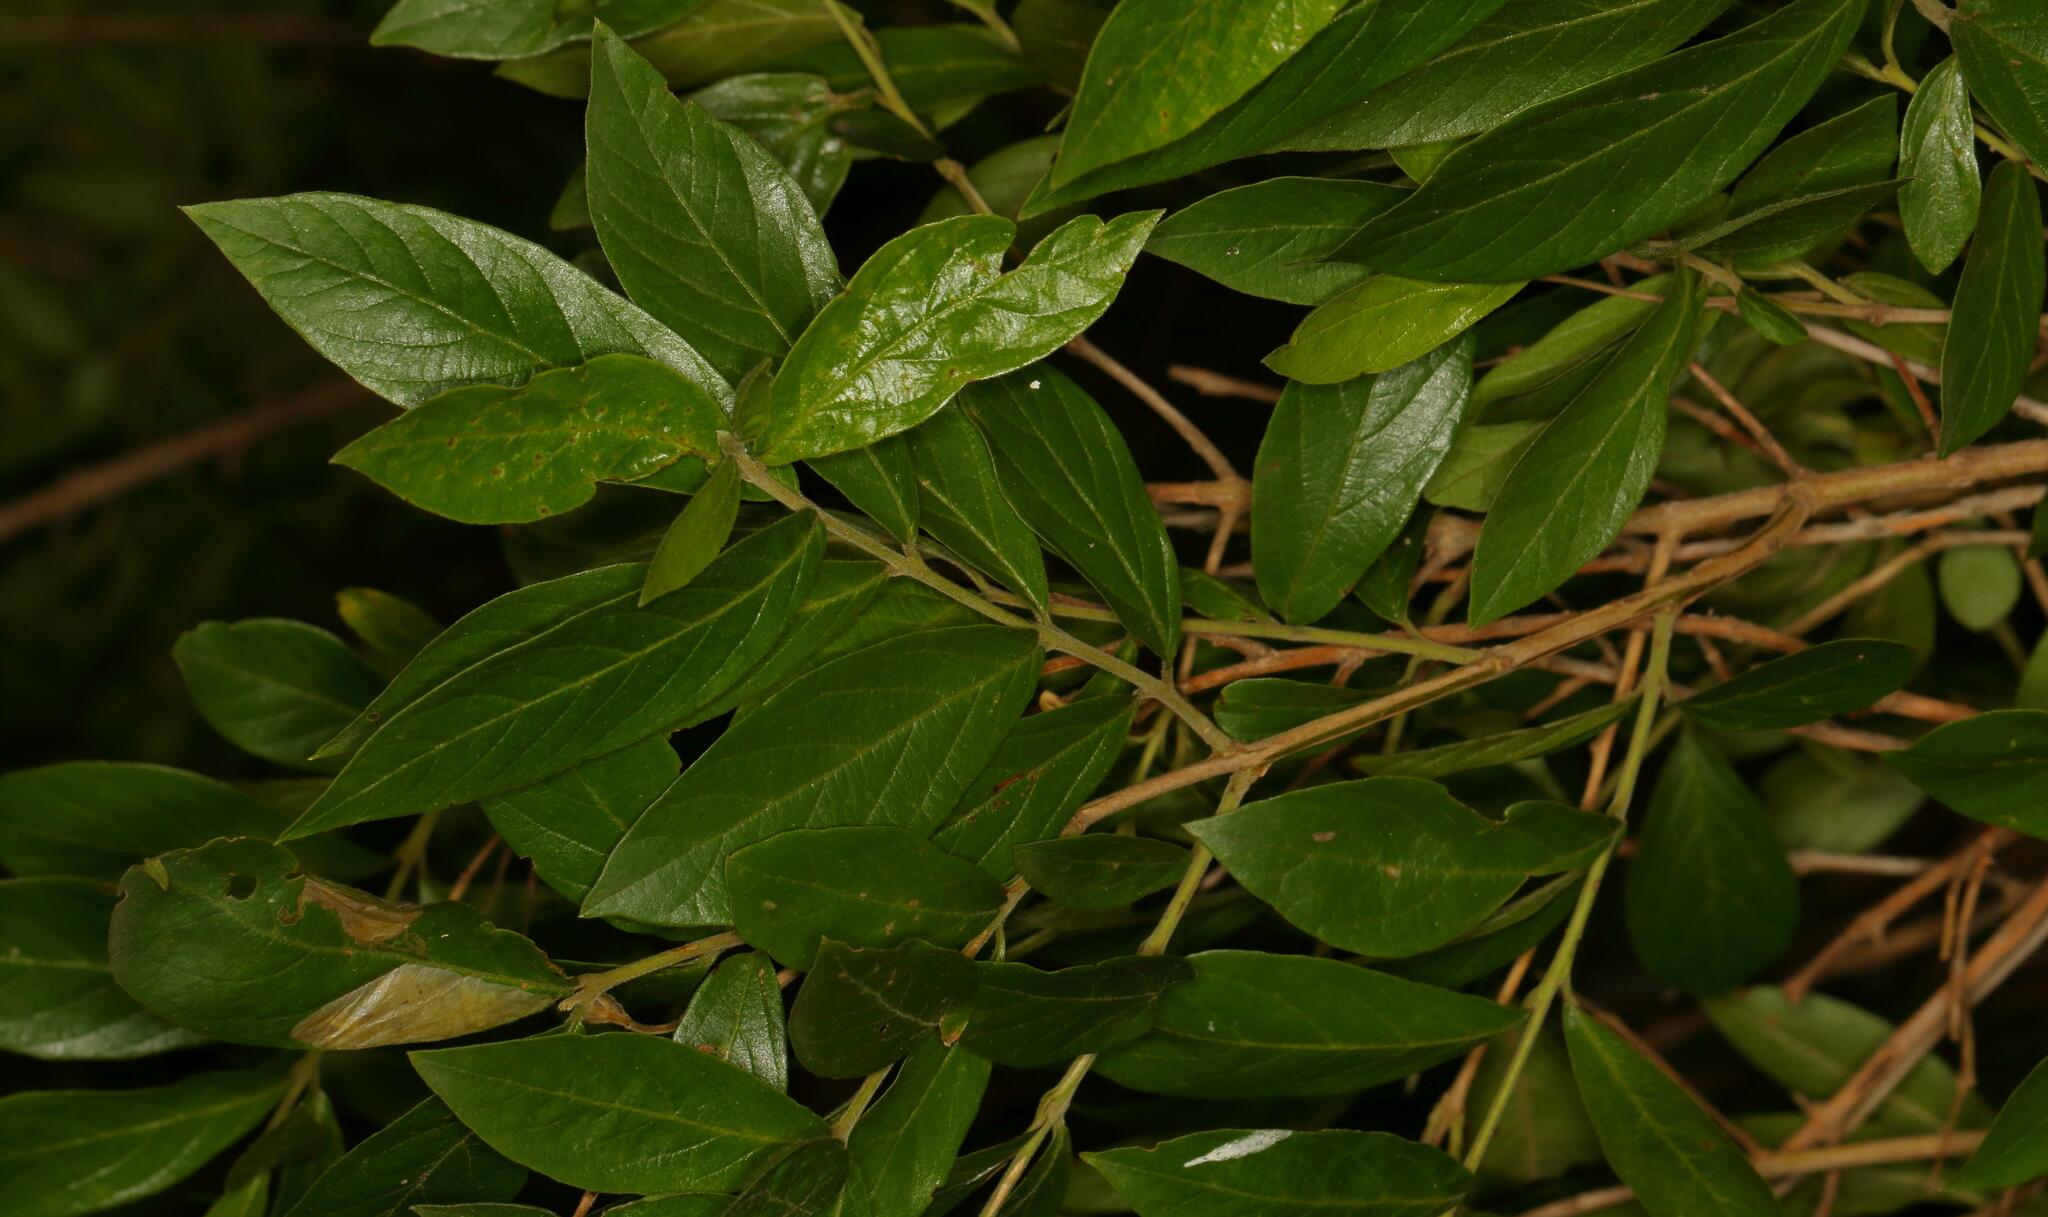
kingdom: Plantae
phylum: Tracheophyta
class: Magnoliopsida
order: Myrtales
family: Combretaceae
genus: Combretum
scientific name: Combretum erythrophyllum
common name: Bush-willow
